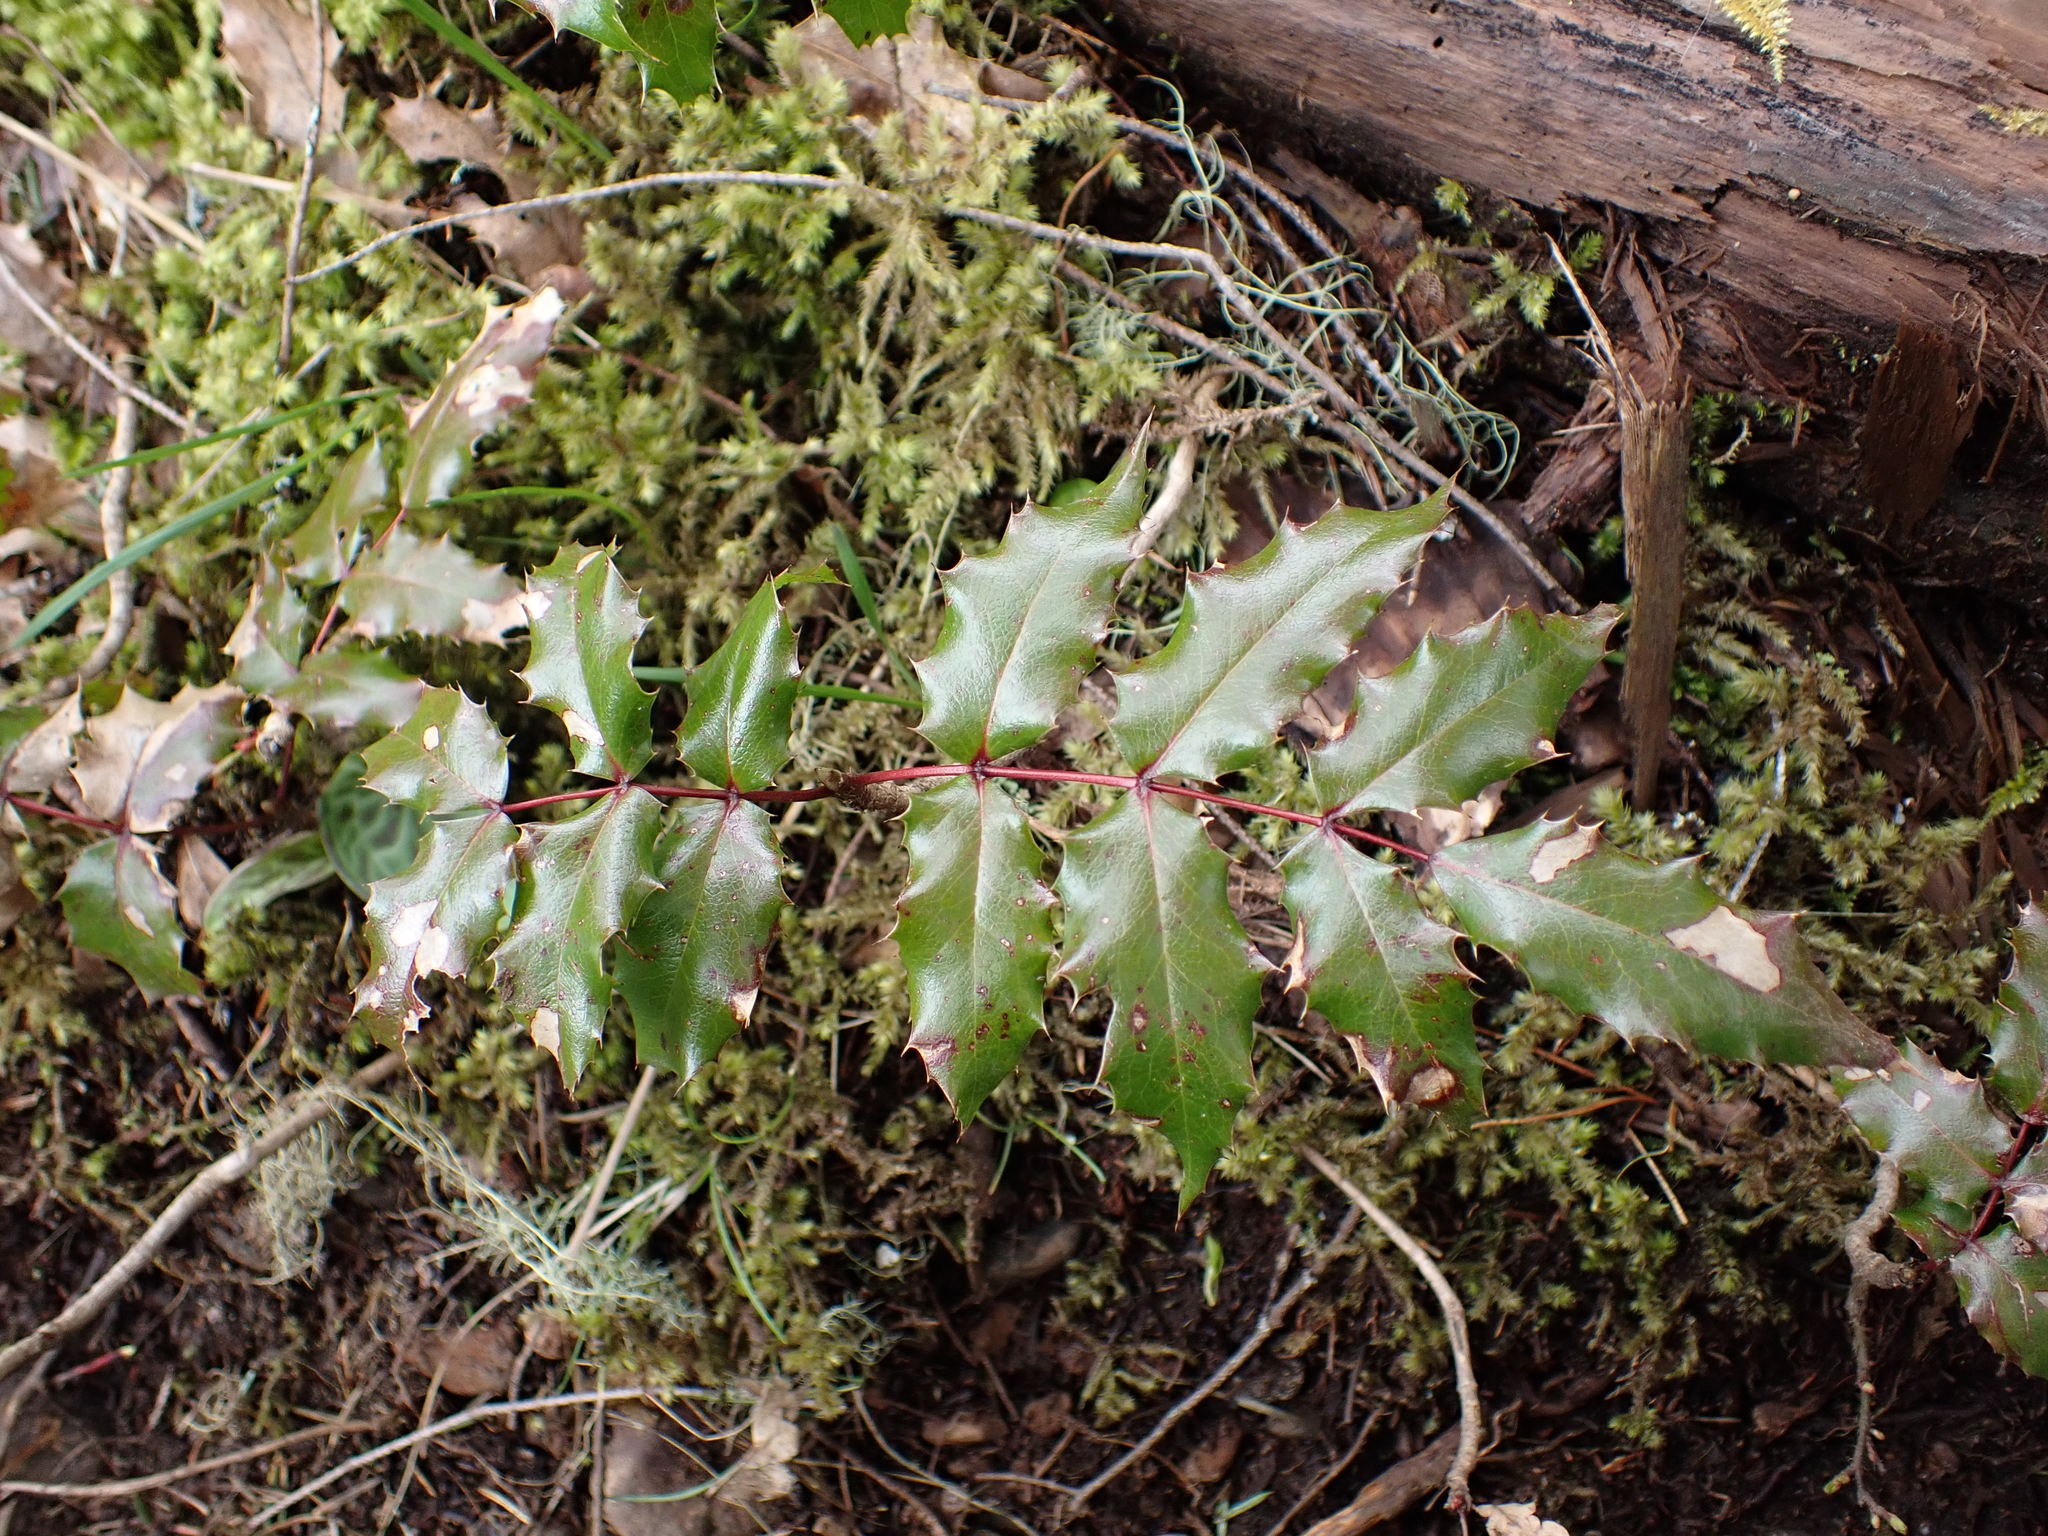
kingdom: Plantae
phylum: Tracheophyta
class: Magnoliopsida
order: Ranunculales
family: Berberidaceae
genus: Mahonia
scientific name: Mahonia aquifolium
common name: Oregon-grape
